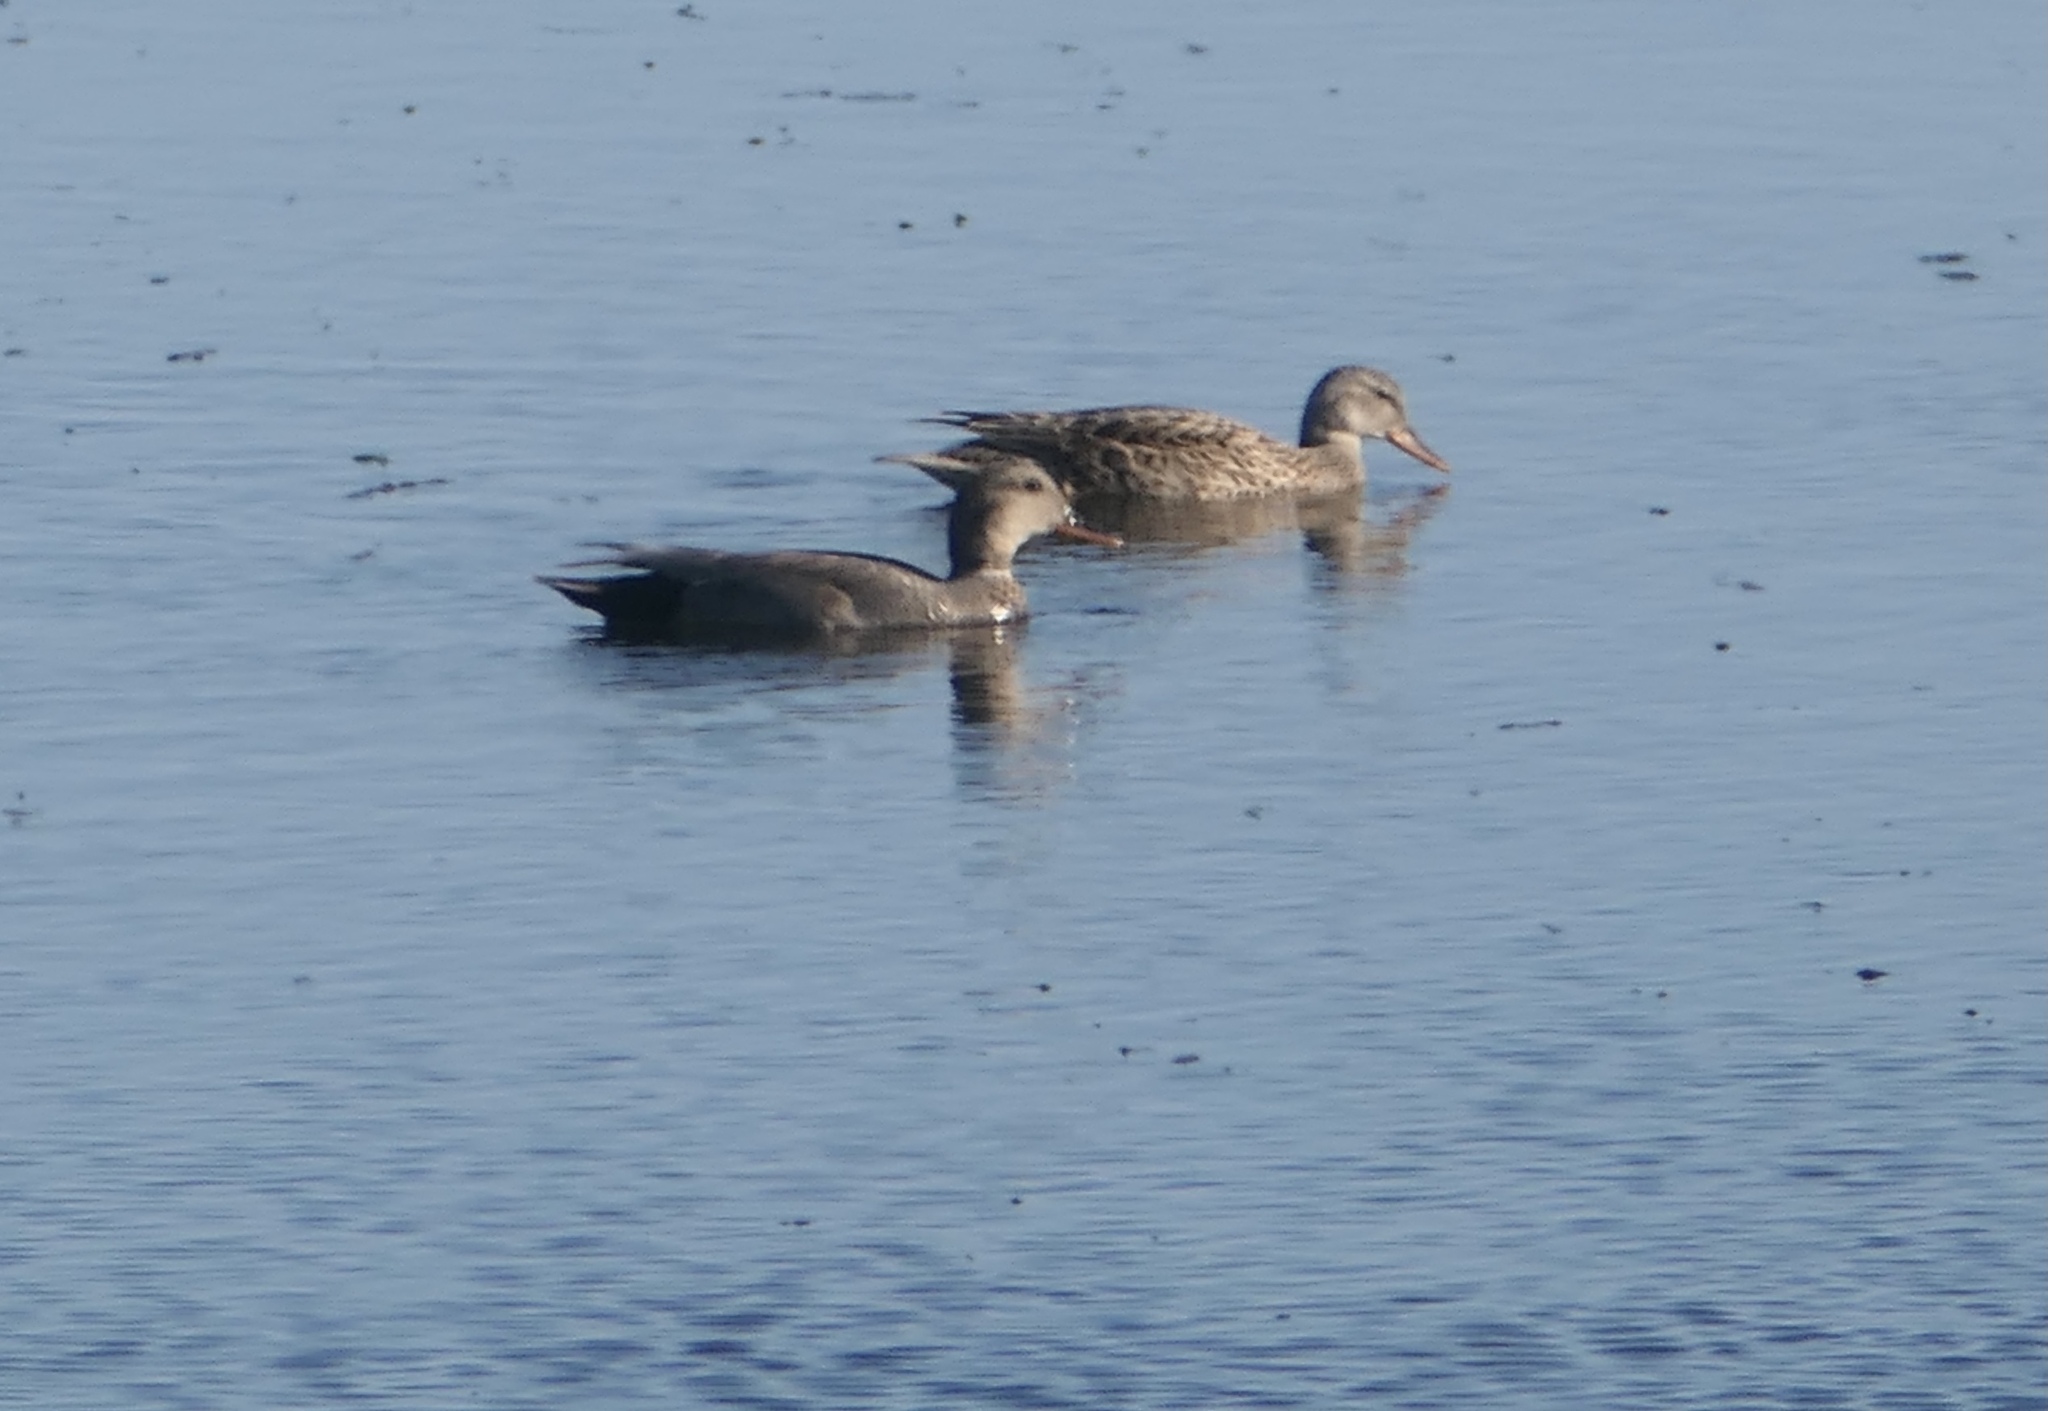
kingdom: Animalia
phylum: Chordata
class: Aves
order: Anseriformes
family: Anatidae
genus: Mareca
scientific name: Mareca strepera
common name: Gadwall
